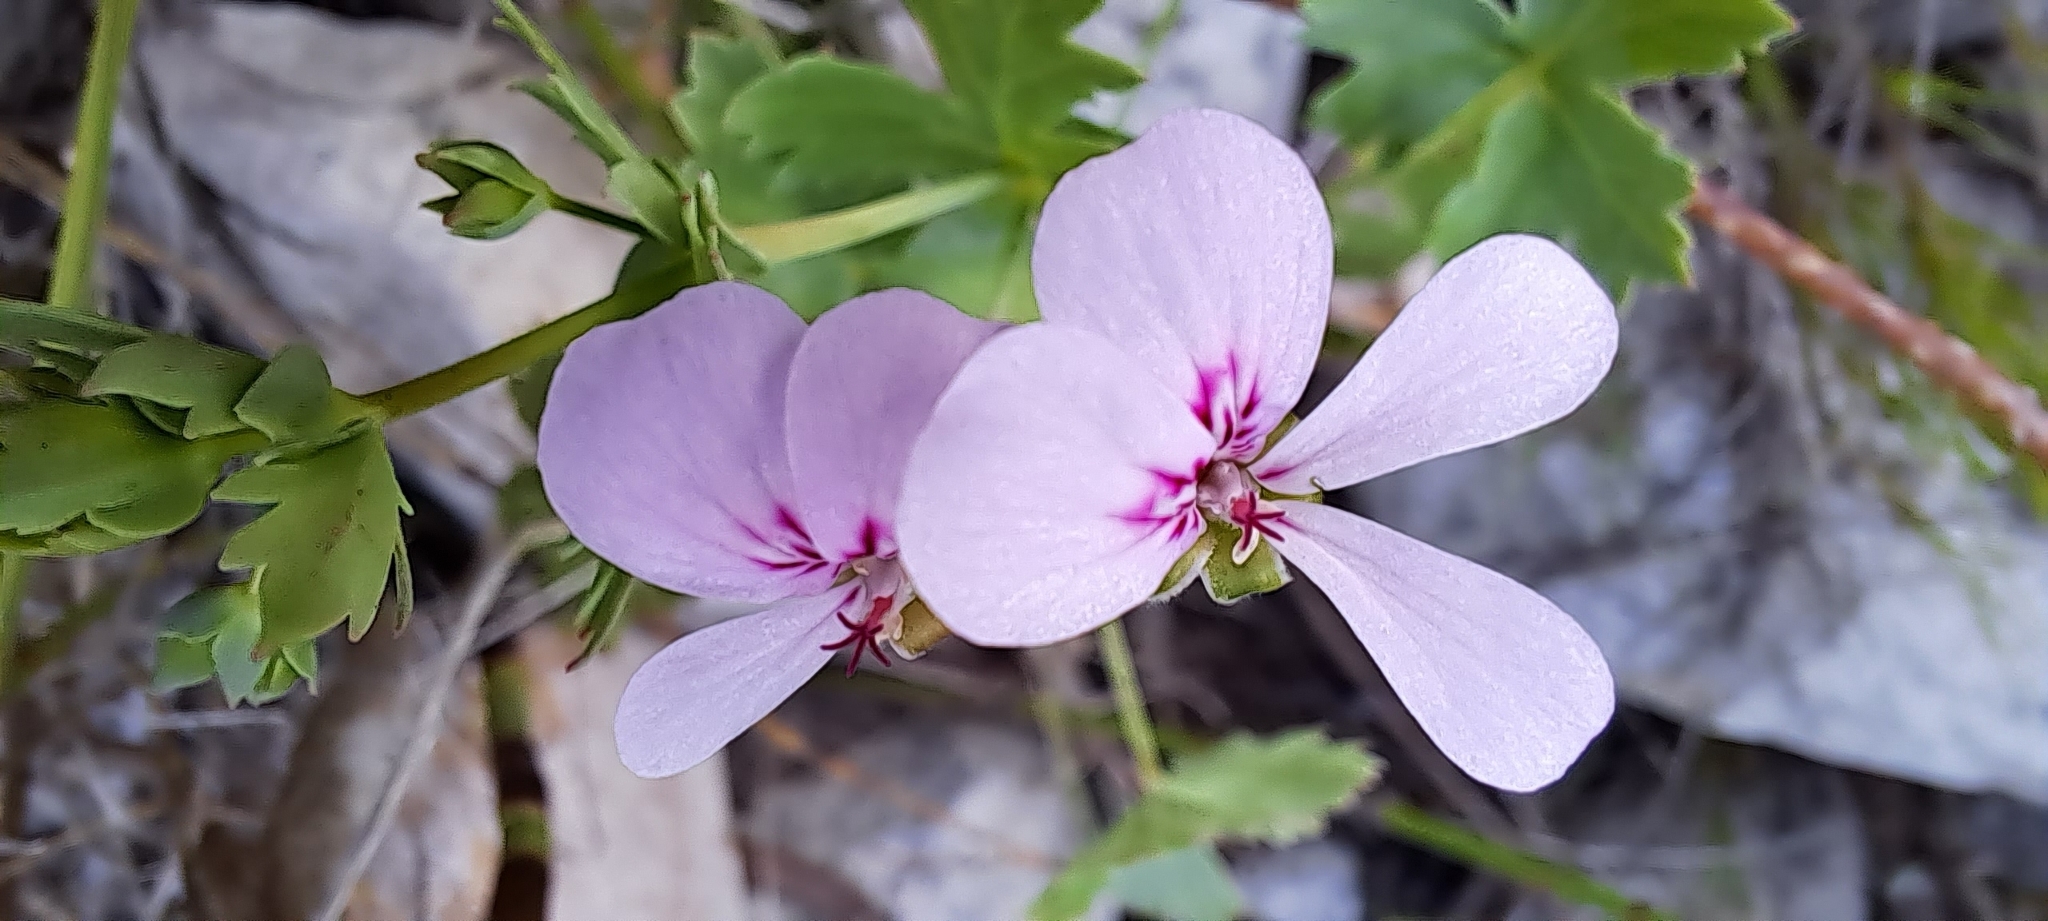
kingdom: Plantae
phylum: Tracheophyta
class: Magnoliopsida
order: Geraniales
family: Geraniaceae
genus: Pelargonium
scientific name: Pelargonium patulum
